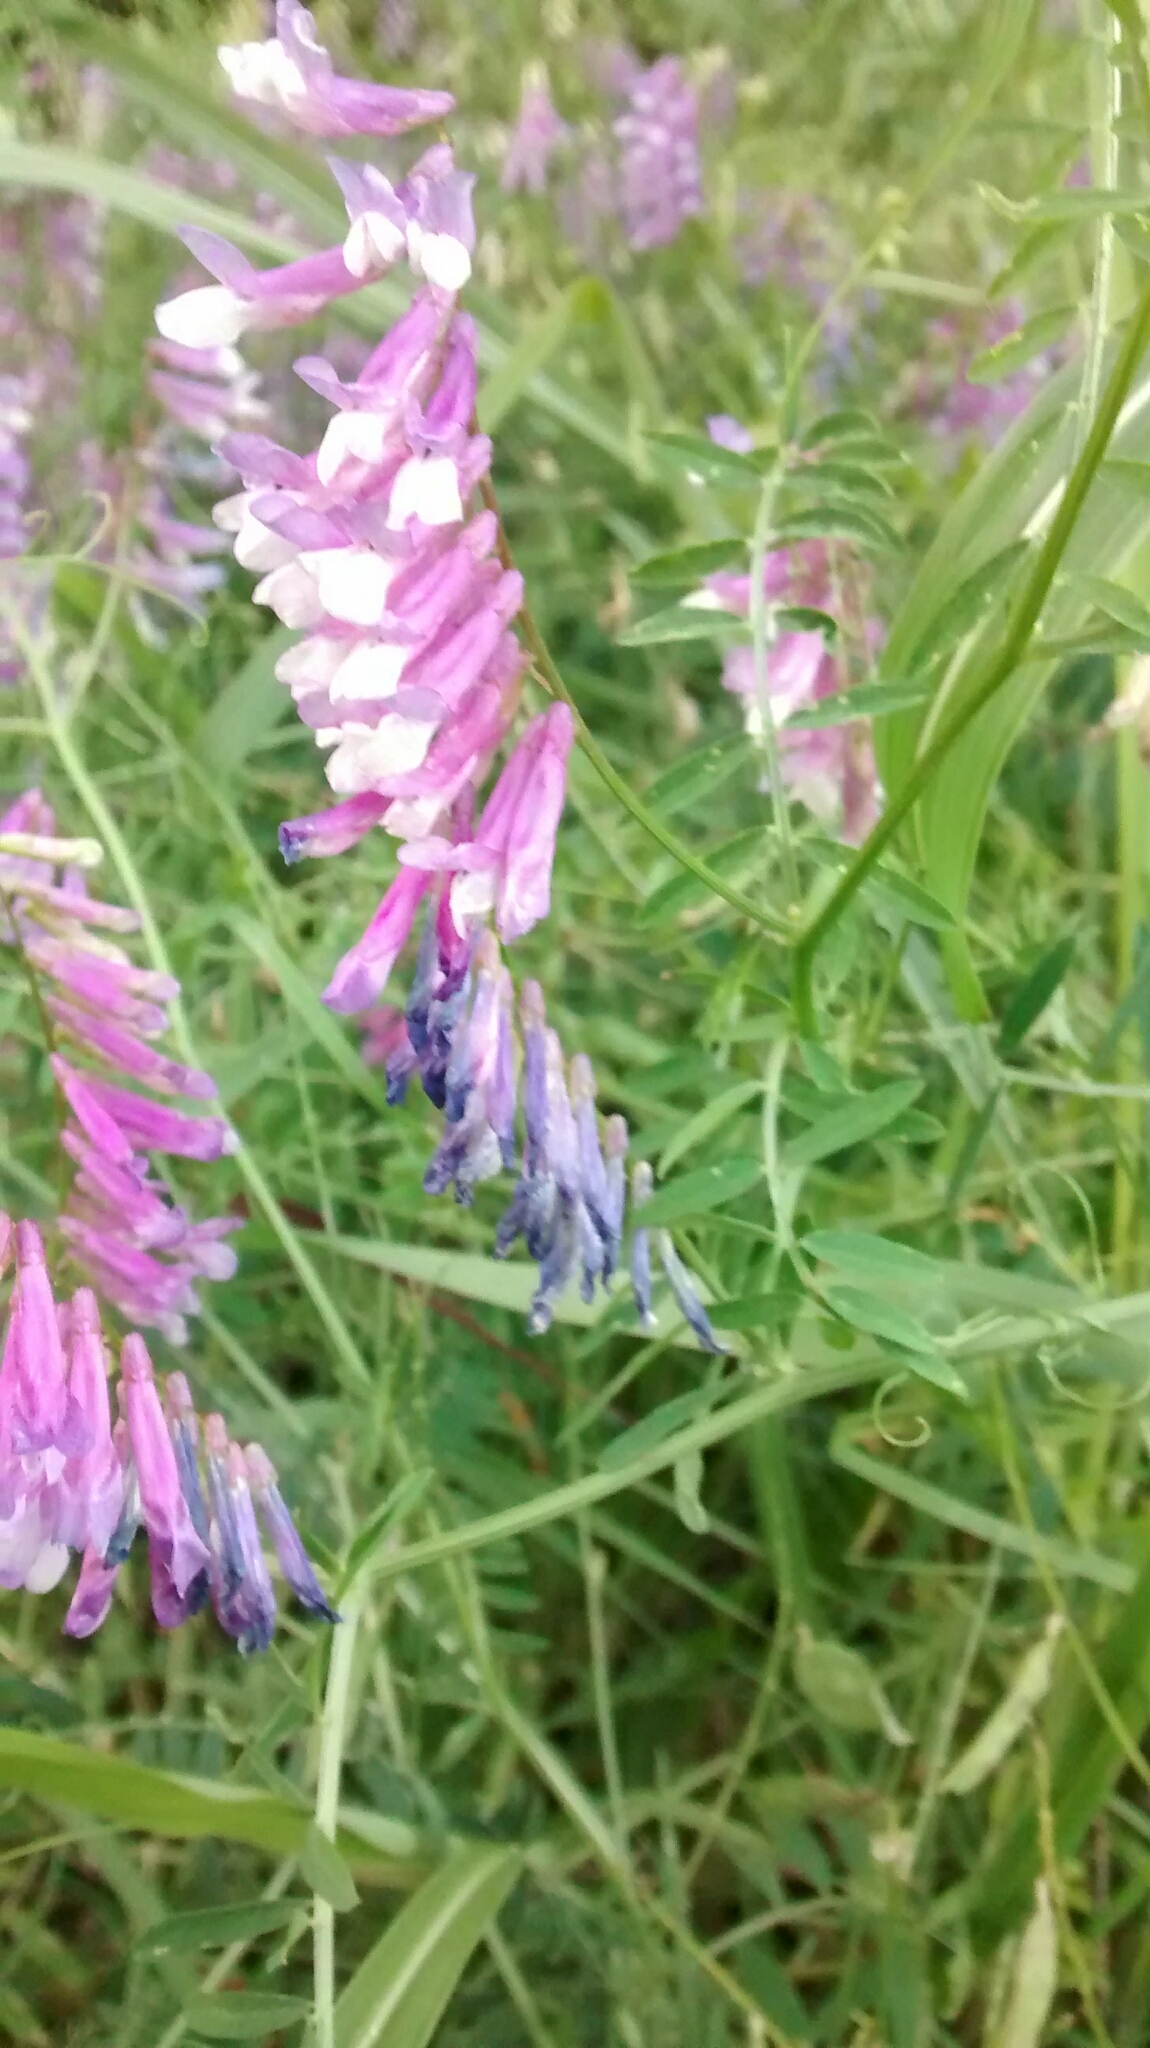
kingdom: Plantae
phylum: Tracheophyta
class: Magnoliopsida
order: Fabales
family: Fabaceae
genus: Vicia
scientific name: Vicia villosa
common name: Fodder vetch
